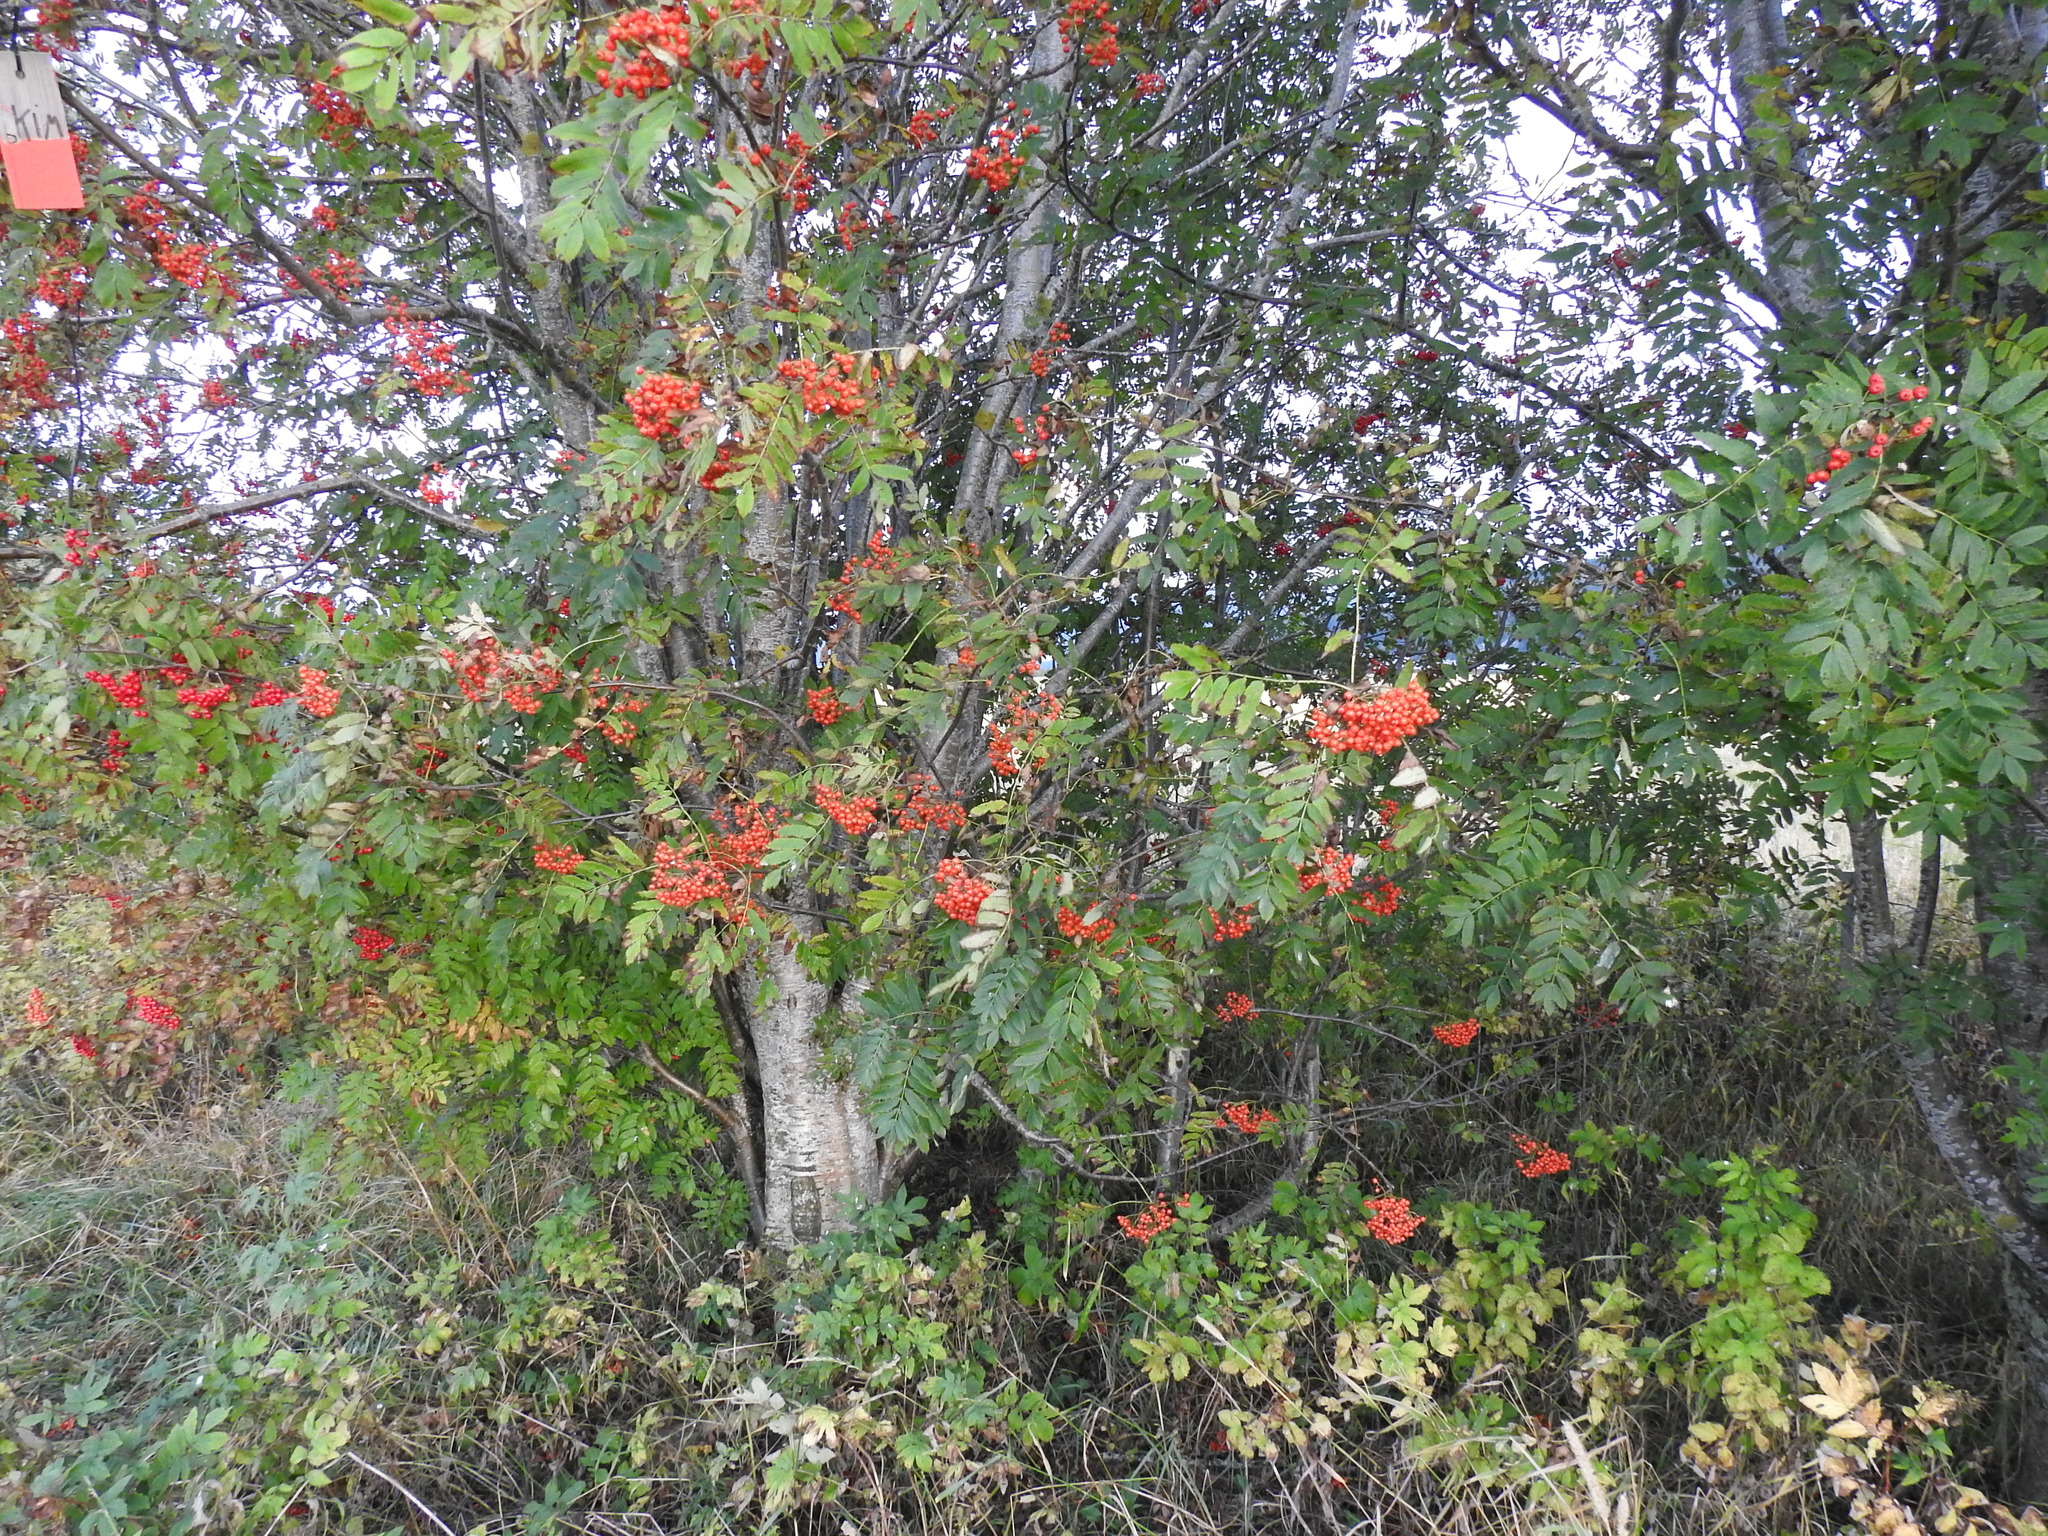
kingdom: Plantae
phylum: Tracheophyta
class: Magnoliopsida
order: Rosales
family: Rosaceae
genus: Sorbus
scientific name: Sorbus aucuparia
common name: Rowan
